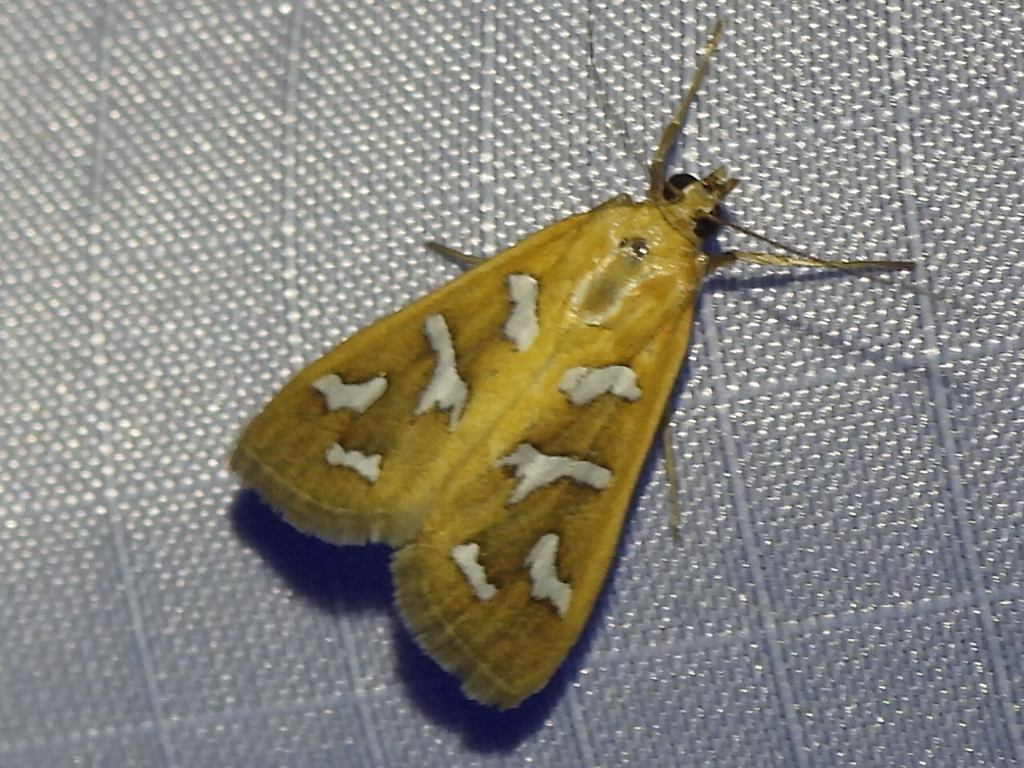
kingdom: Animalia
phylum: Arthropoda
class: Insecta
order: Lepidoptera
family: Crambidae
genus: Diastictis
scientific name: Diastictis fracturalis
